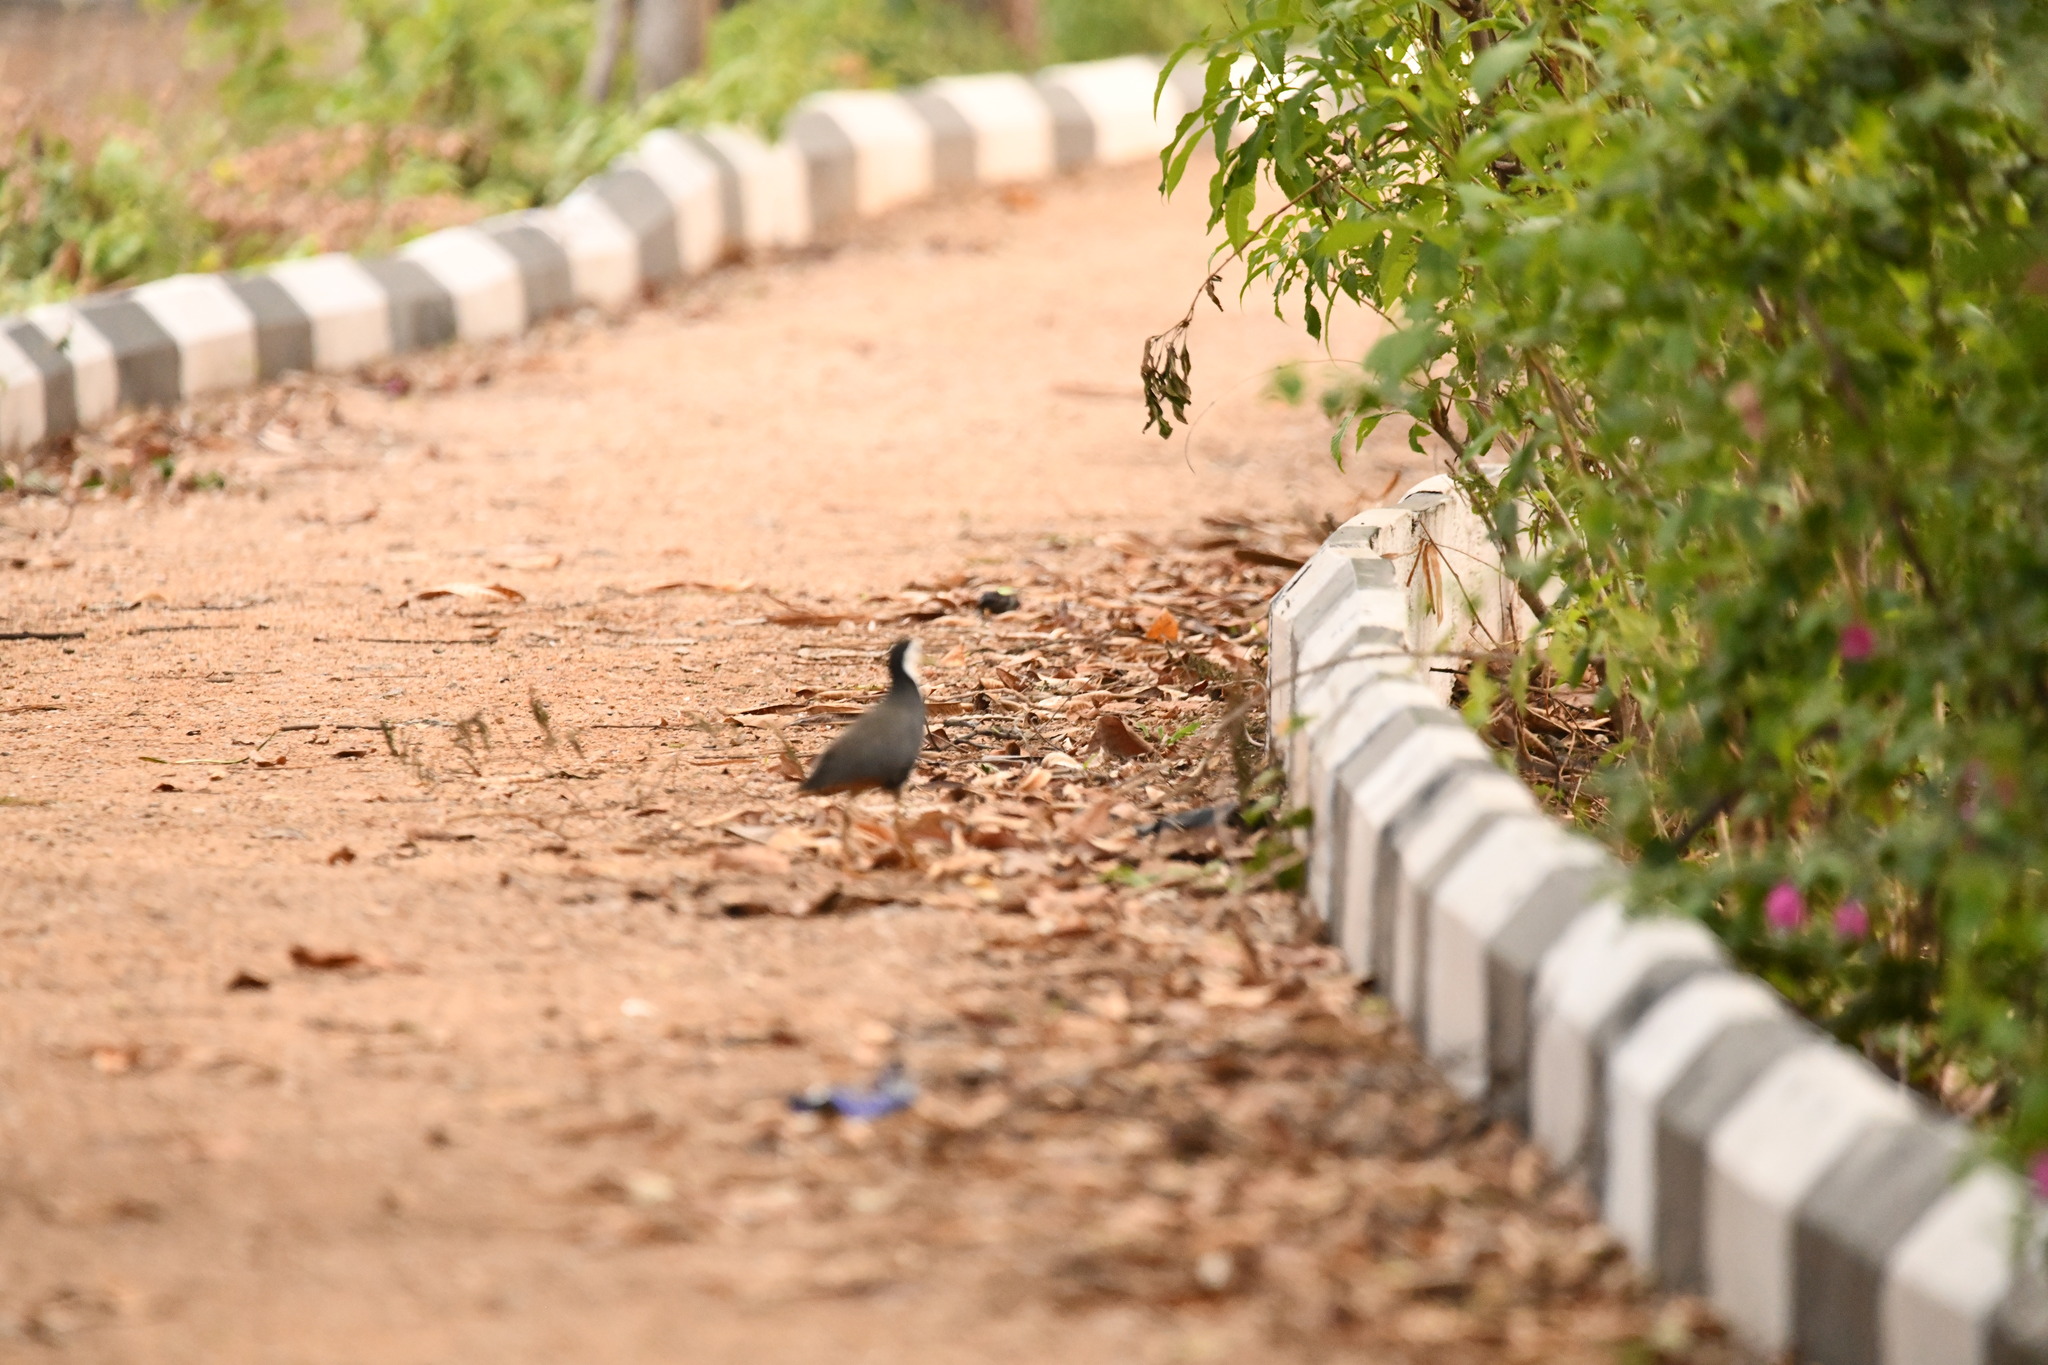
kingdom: Animalia
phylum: Chordata
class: Aves
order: Gruiformes
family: Rallidae
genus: Amaurornis
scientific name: Amaurornis phoenicurus
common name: White-breasted waterhen
